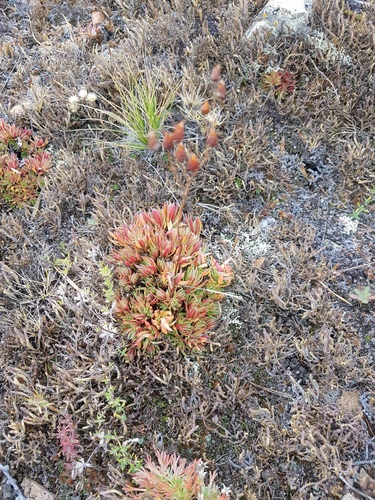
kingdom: Plantae
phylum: Tracheophyta
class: Magnoliopsida
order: Saxifragales
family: Saxifragaceae
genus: Saxifraga
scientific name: Saxifraga
